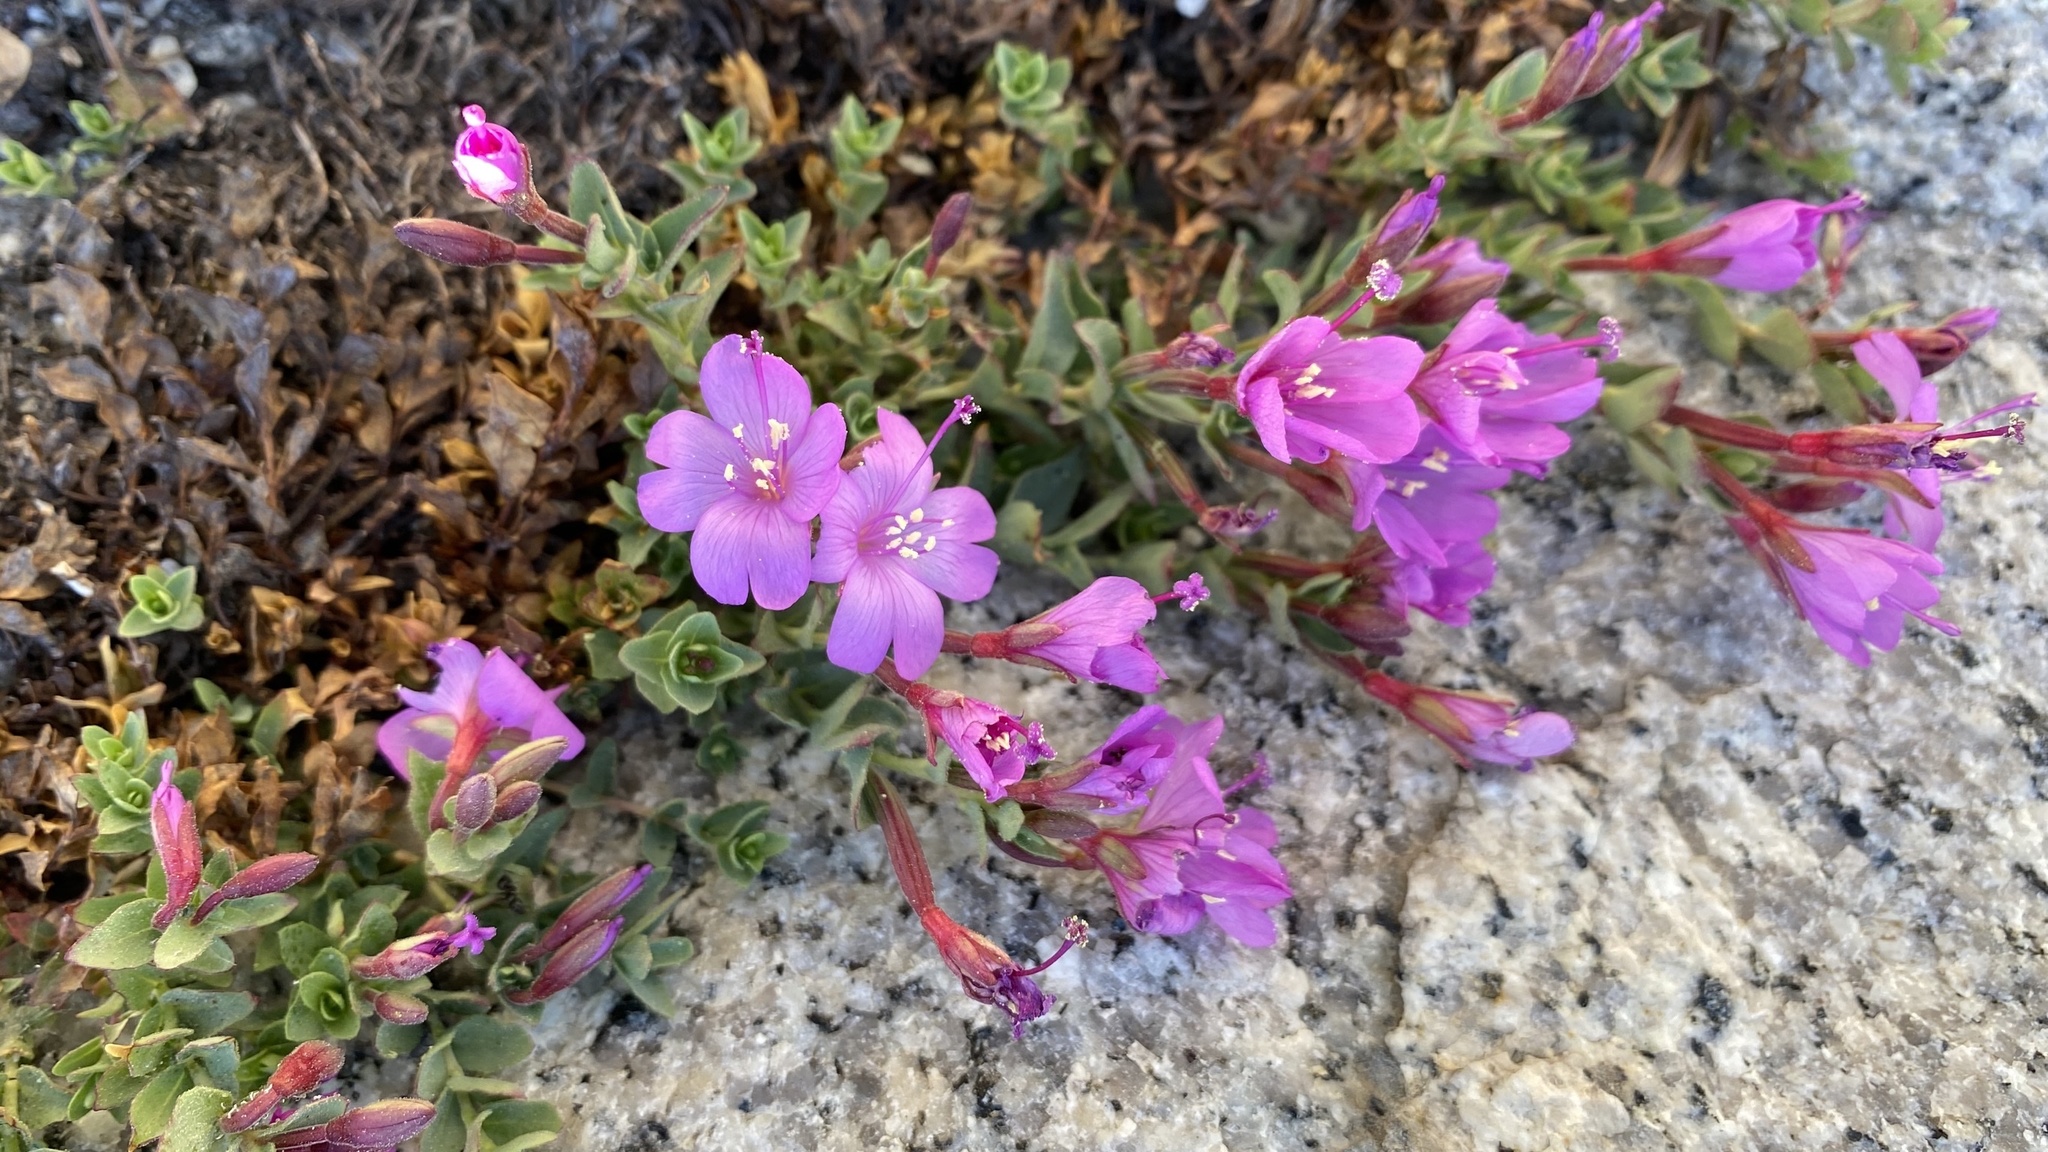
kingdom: Plantae
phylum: Tracheophyta
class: Magnoliopsida
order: Myrtales
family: Onagraceae
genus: Epilobium
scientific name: Epilobium obcordatum
